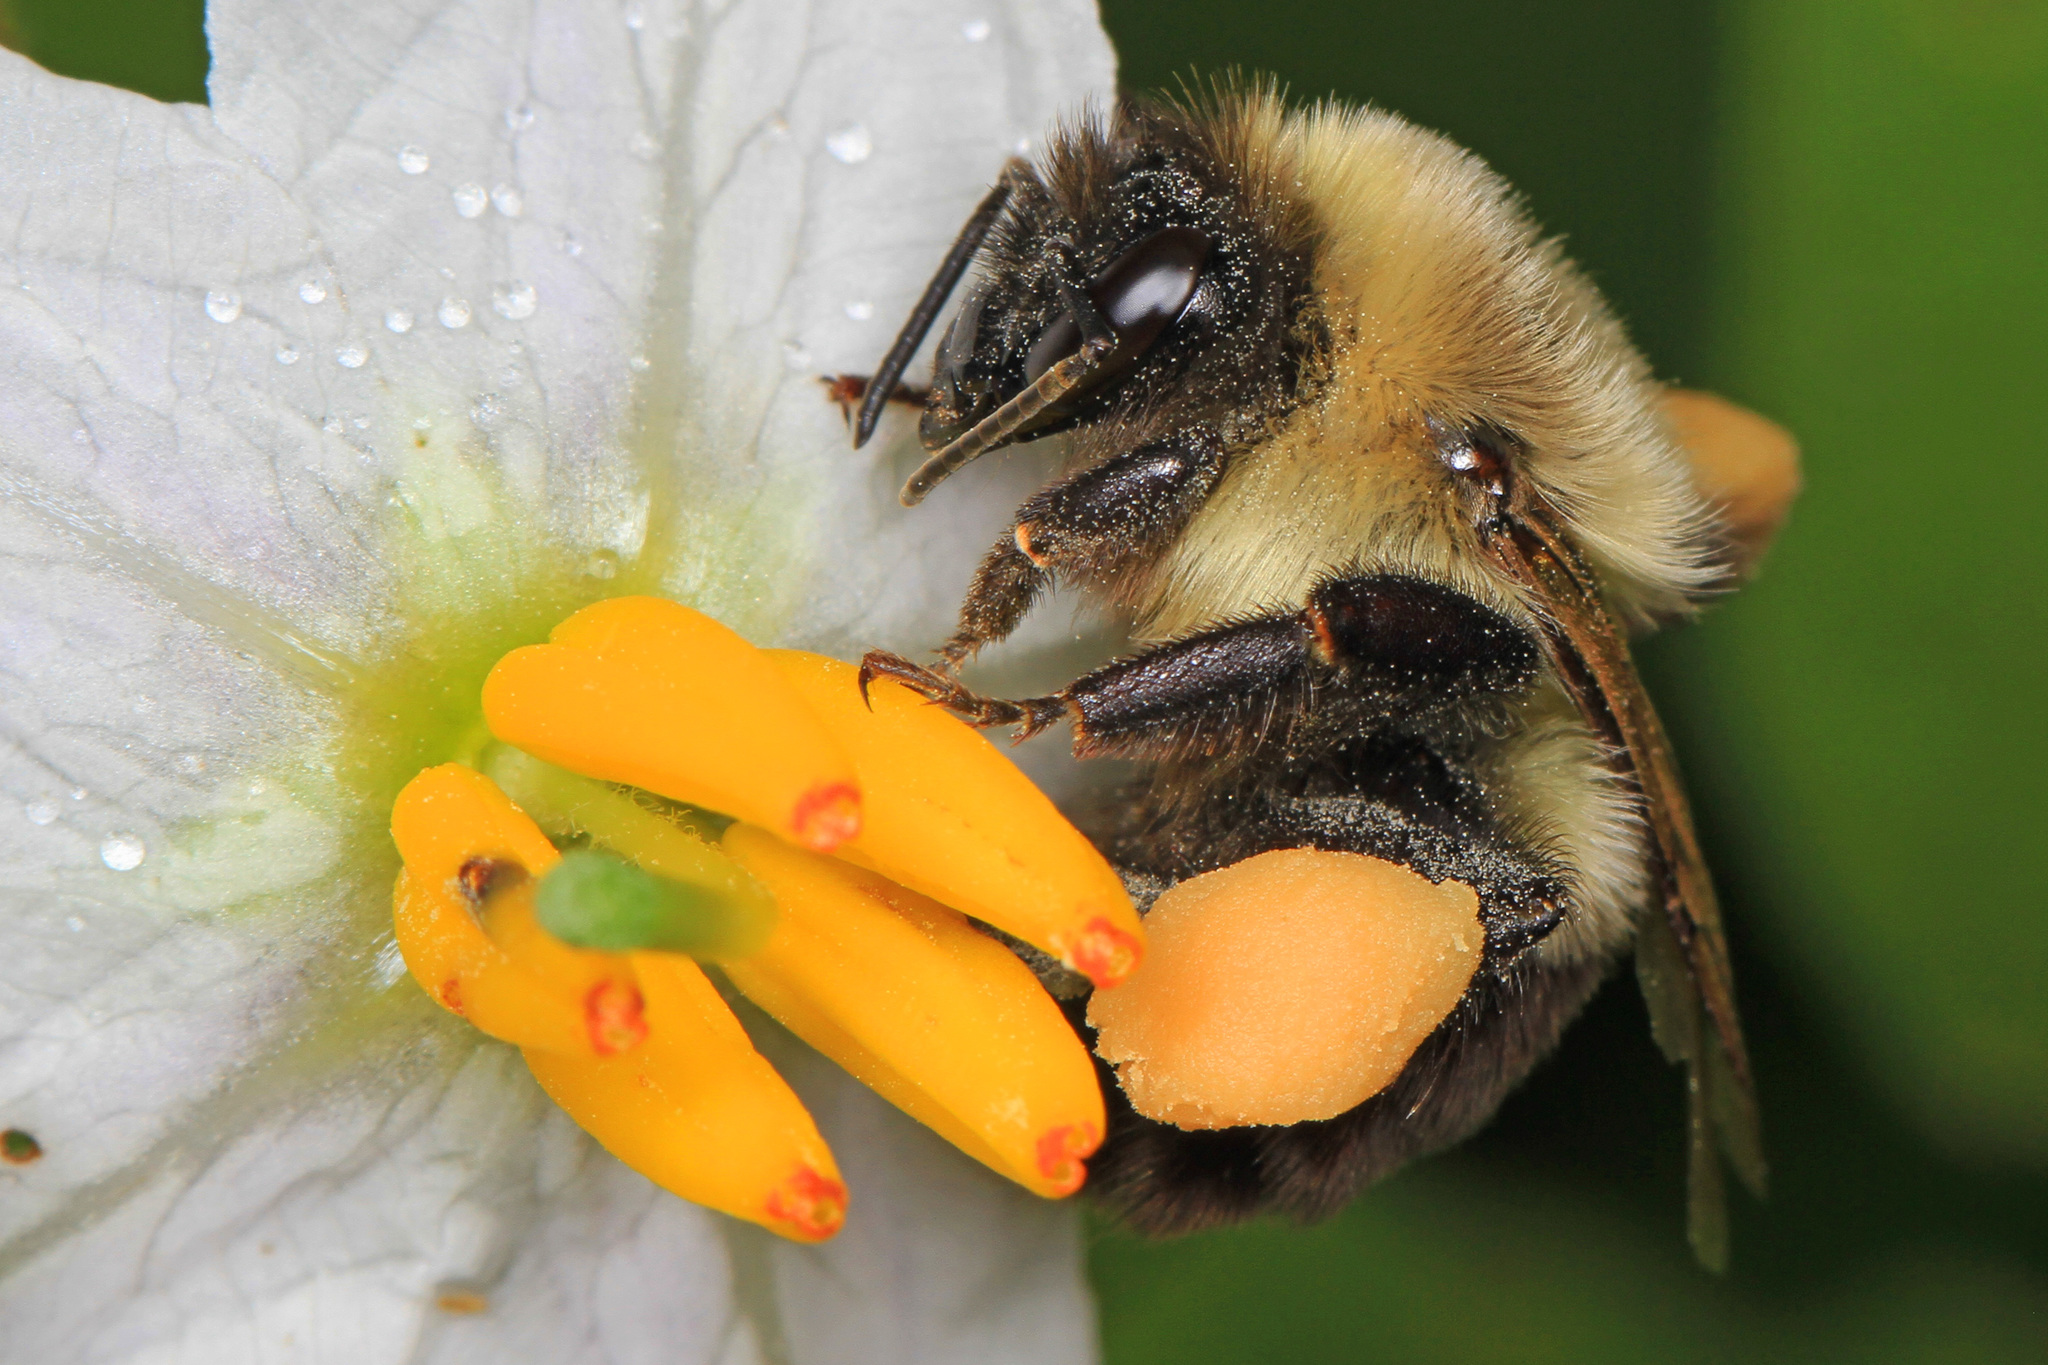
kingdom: Animalia
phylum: Arthropoda
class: Insecta
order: Hymenoptera
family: Apidae
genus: Bombus
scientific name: Bombus impatiens
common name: Common eastern bumble bee
